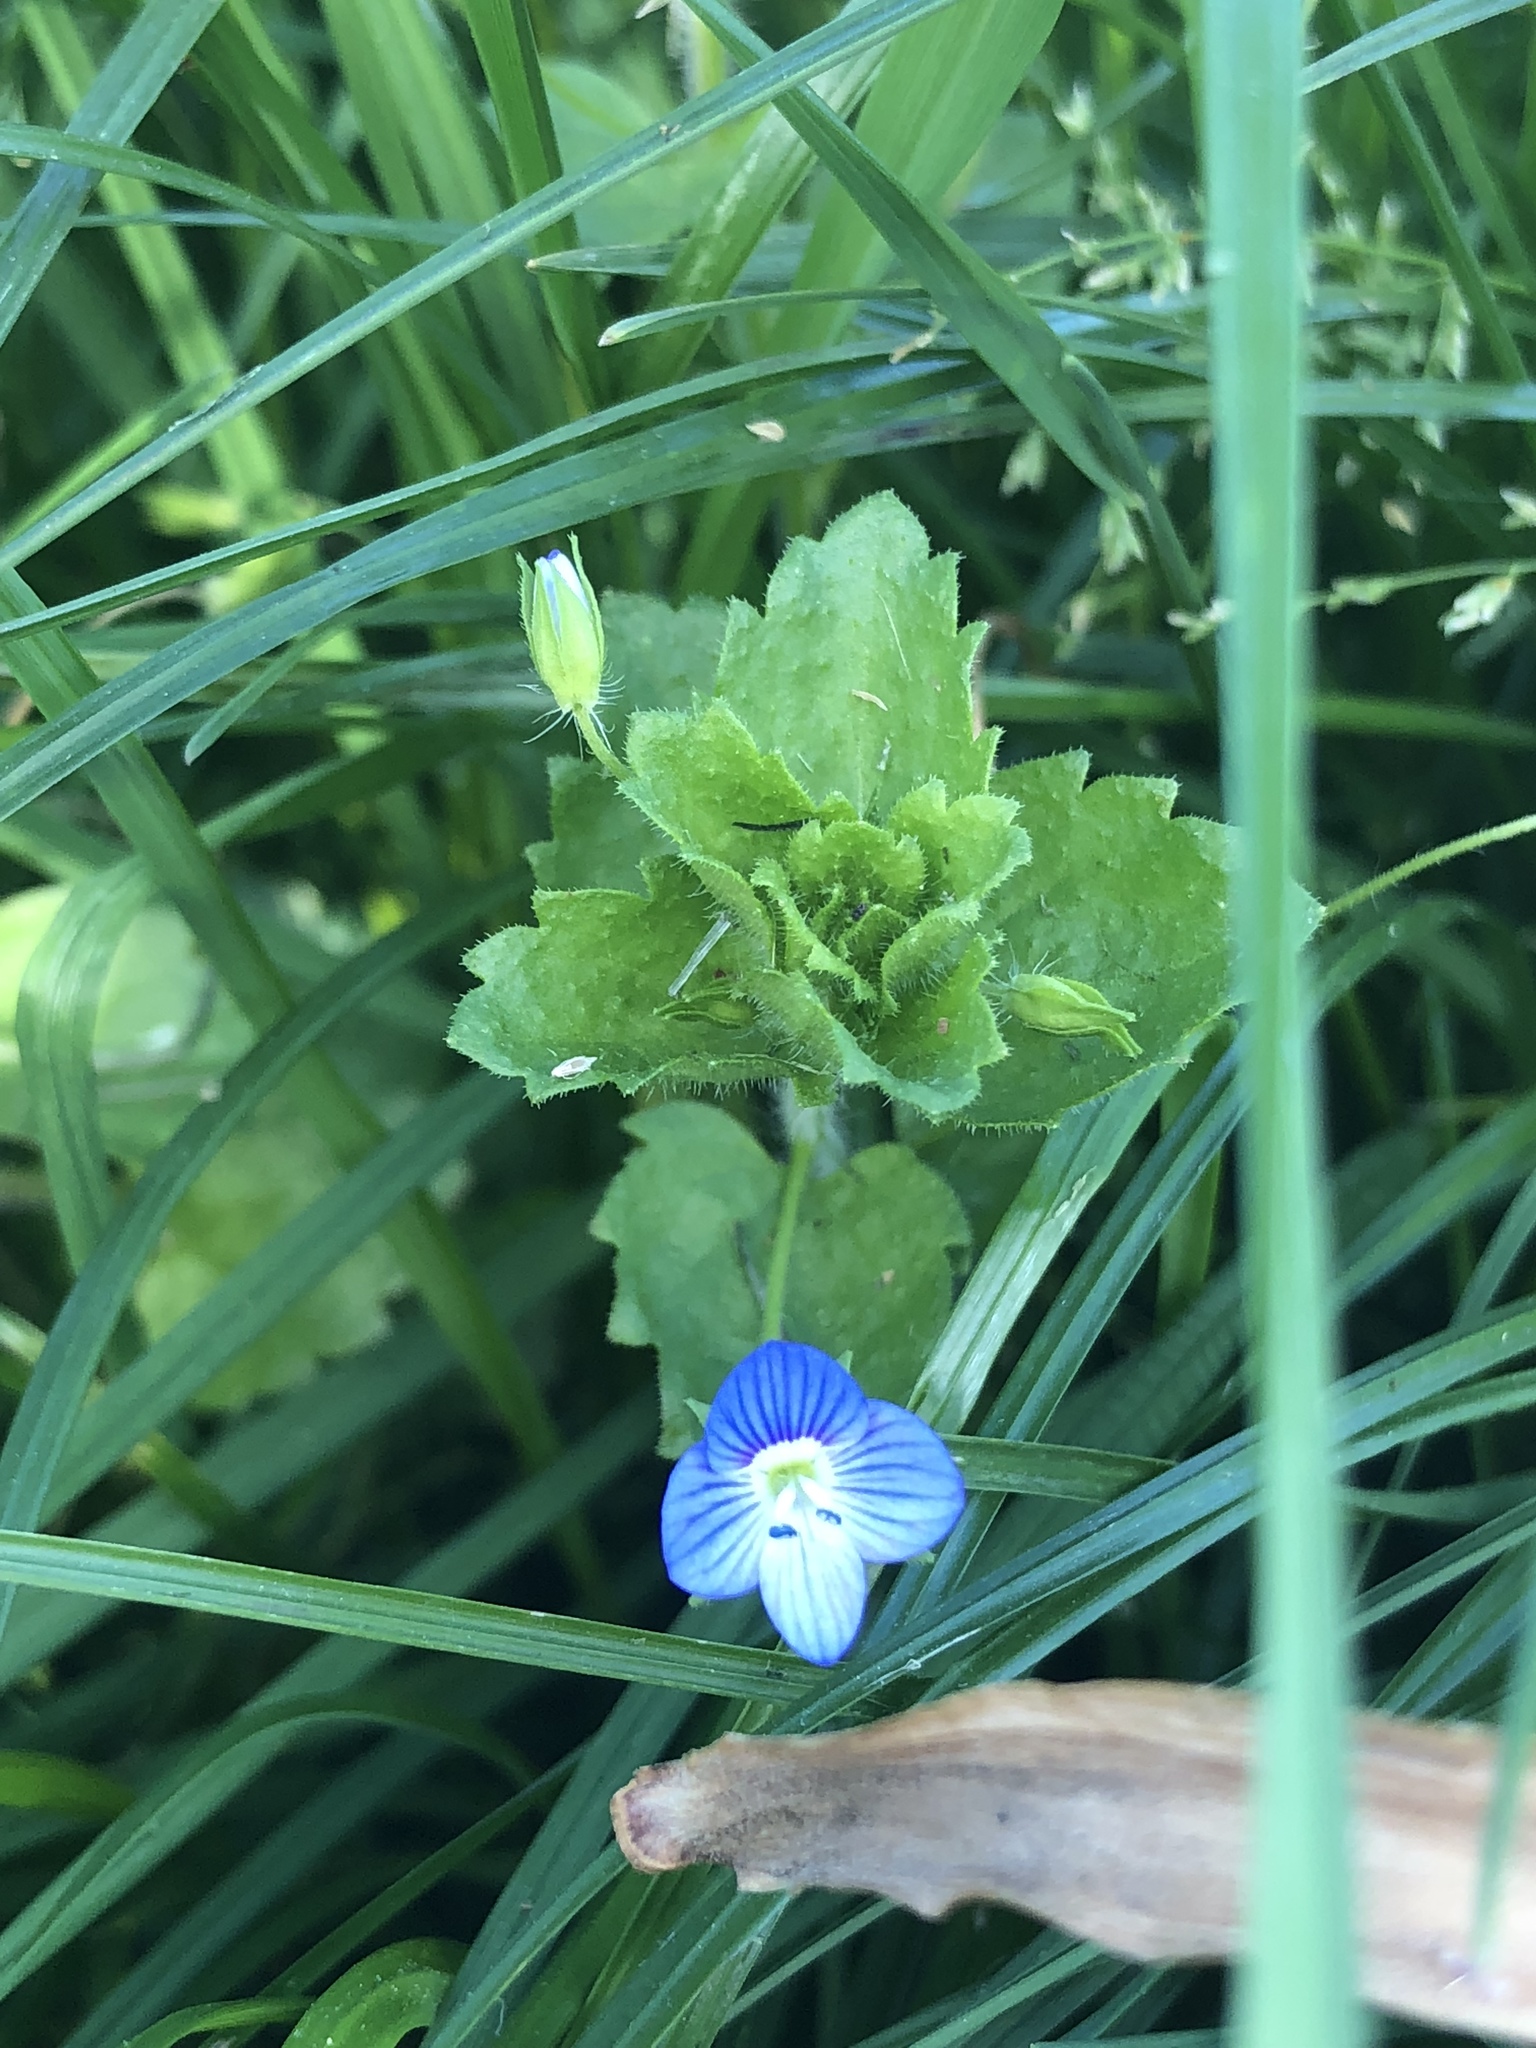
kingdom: Plantae
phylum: Tracheophyta
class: Magnoliopsida
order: Lamiales
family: Plantaginaceae
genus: Veronica
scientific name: Veronica persica
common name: Common field-speedwell
